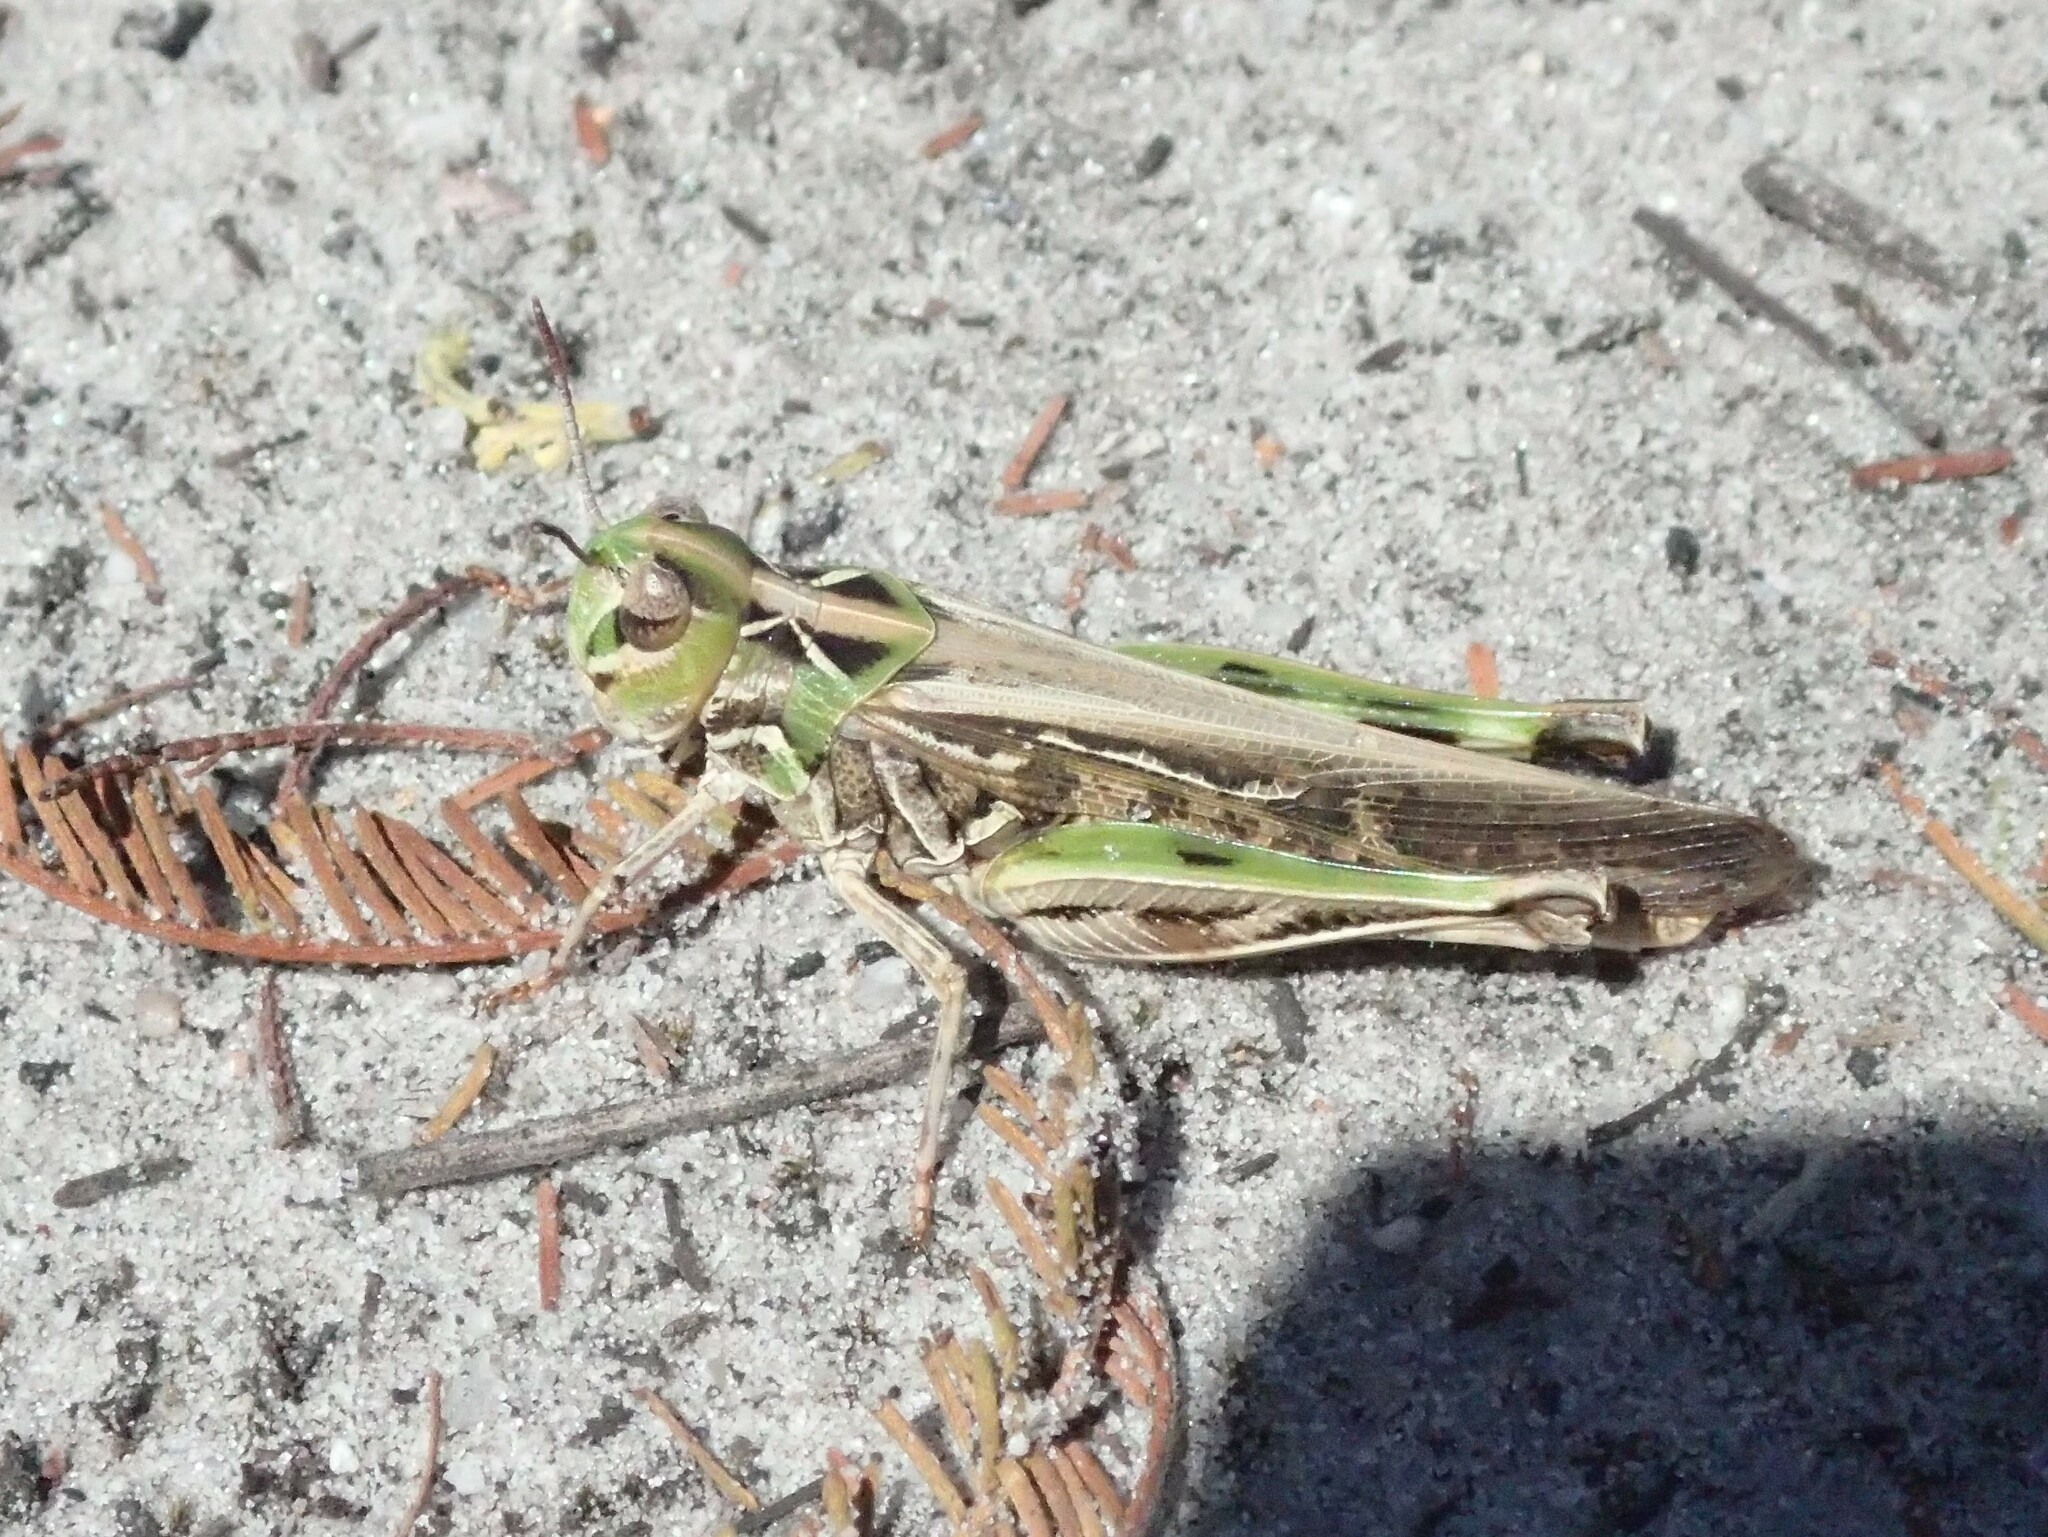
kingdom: Animalia
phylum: Arthropoda
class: Insecta
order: Orthoptera
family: Acrididae
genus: Austroicetes
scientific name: Austroicetes vulgaris
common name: Southeastern austroicetes
